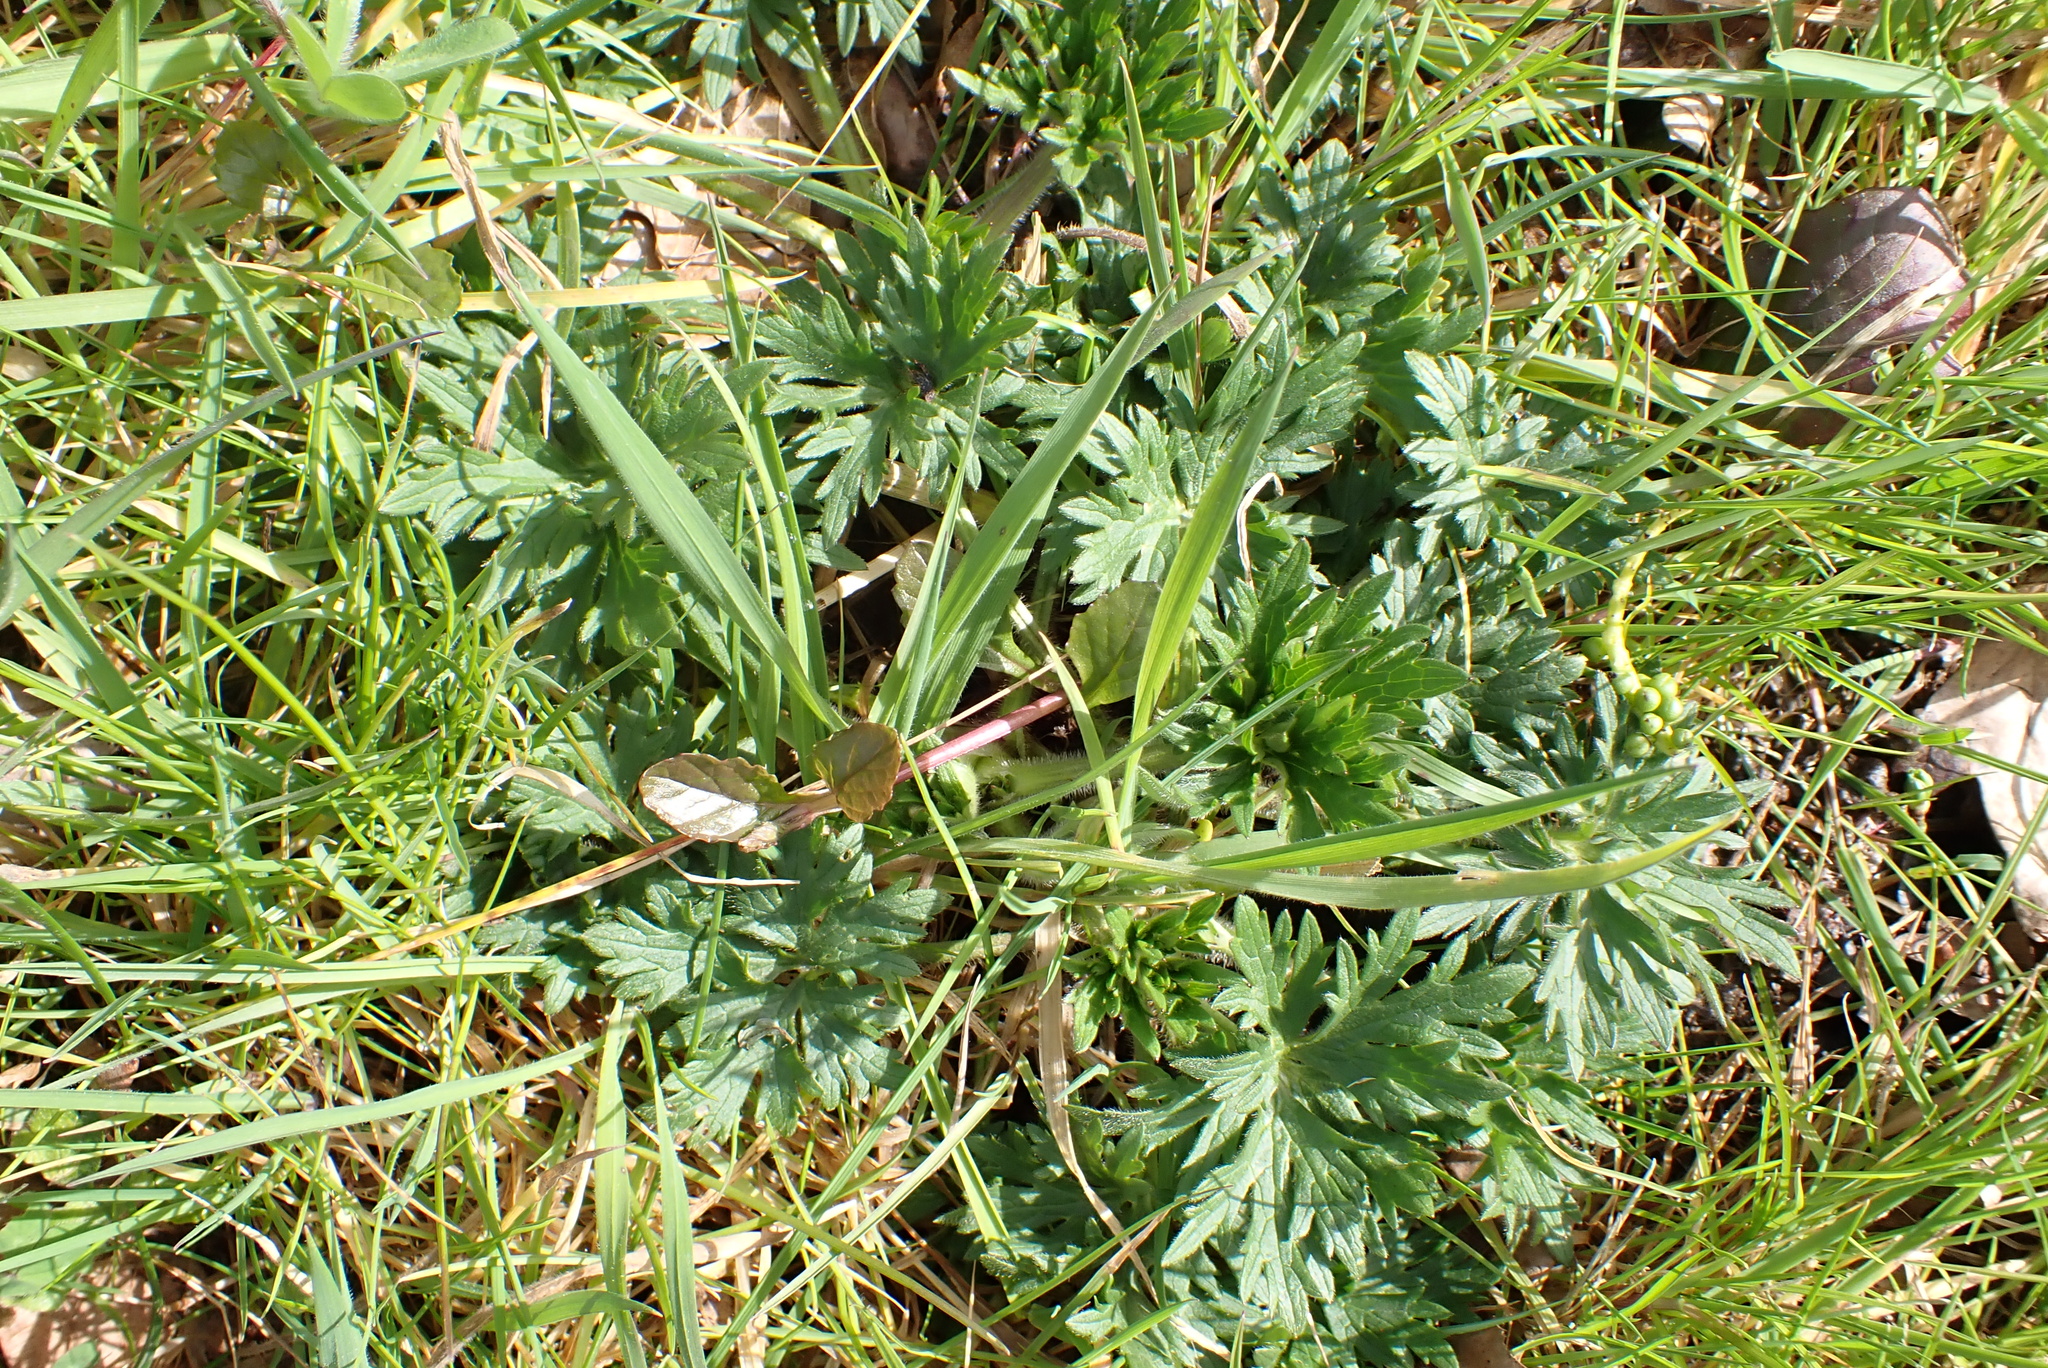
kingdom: Plantae
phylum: Tracheophyta
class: Magnoliopsida
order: Ranunculales
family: Ranunculaceae
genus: Ranunculus
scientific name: Ranunculus acris
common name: Meadow buttercup
